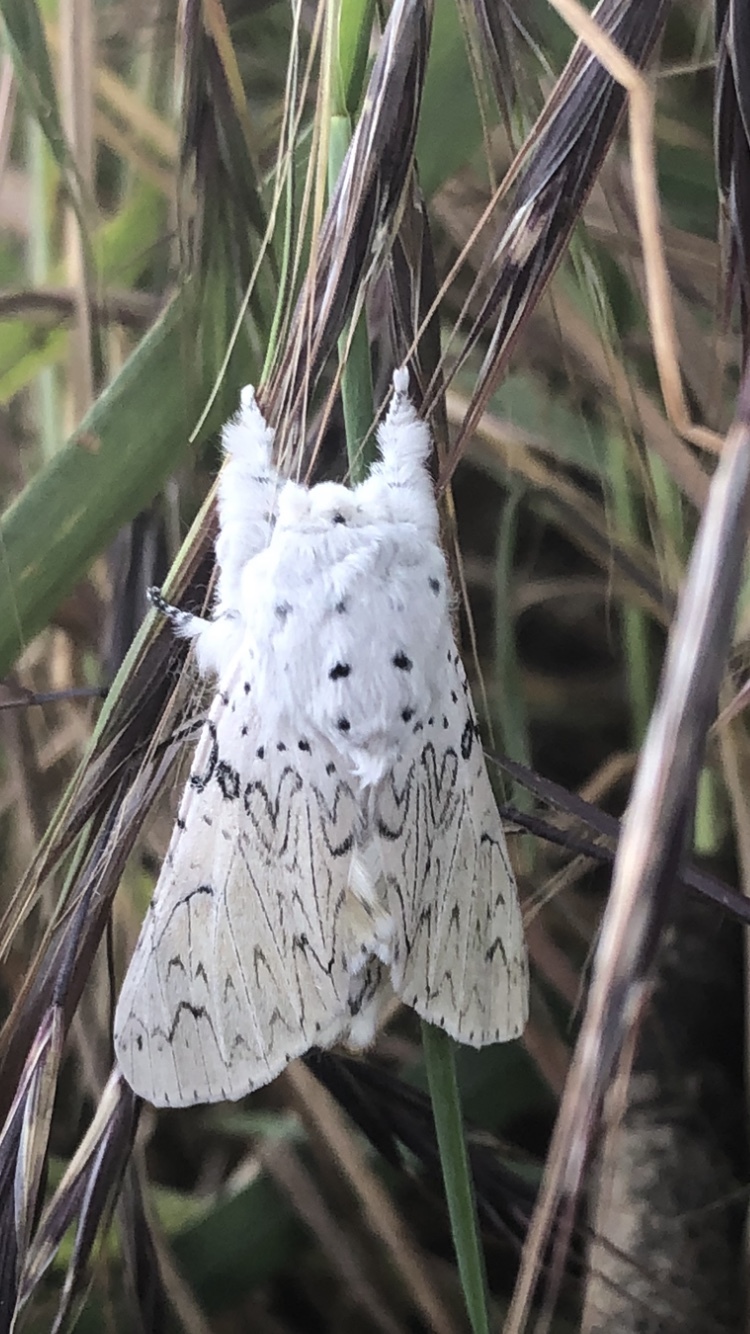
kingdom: Animalia
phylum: Arthropoda
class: Insecta
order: Lepidoptera
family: Notodontidae
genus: Cerura
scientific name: Cerura erminea
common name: Lesser puss moth
